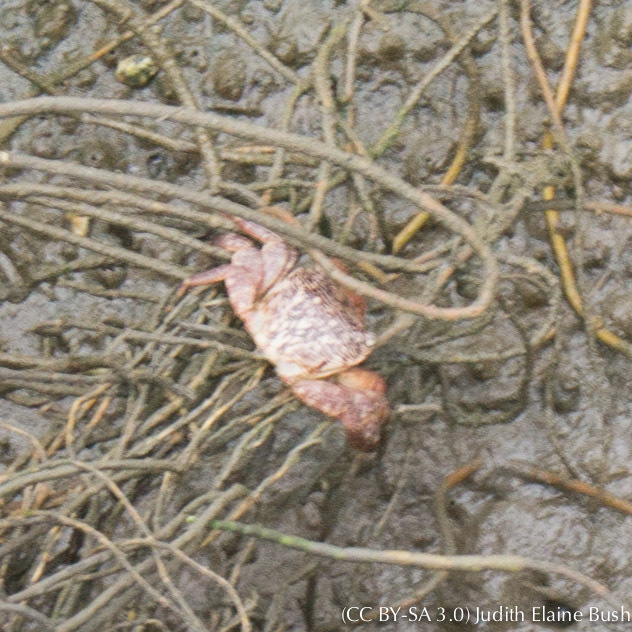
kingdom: Animalia
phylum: Arthropoda
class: Malacostraca
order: Decapoda
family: Grapsidae
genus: Pachygrapsus
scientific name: Pachygrapsus crassipes
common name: Striped shore crab
